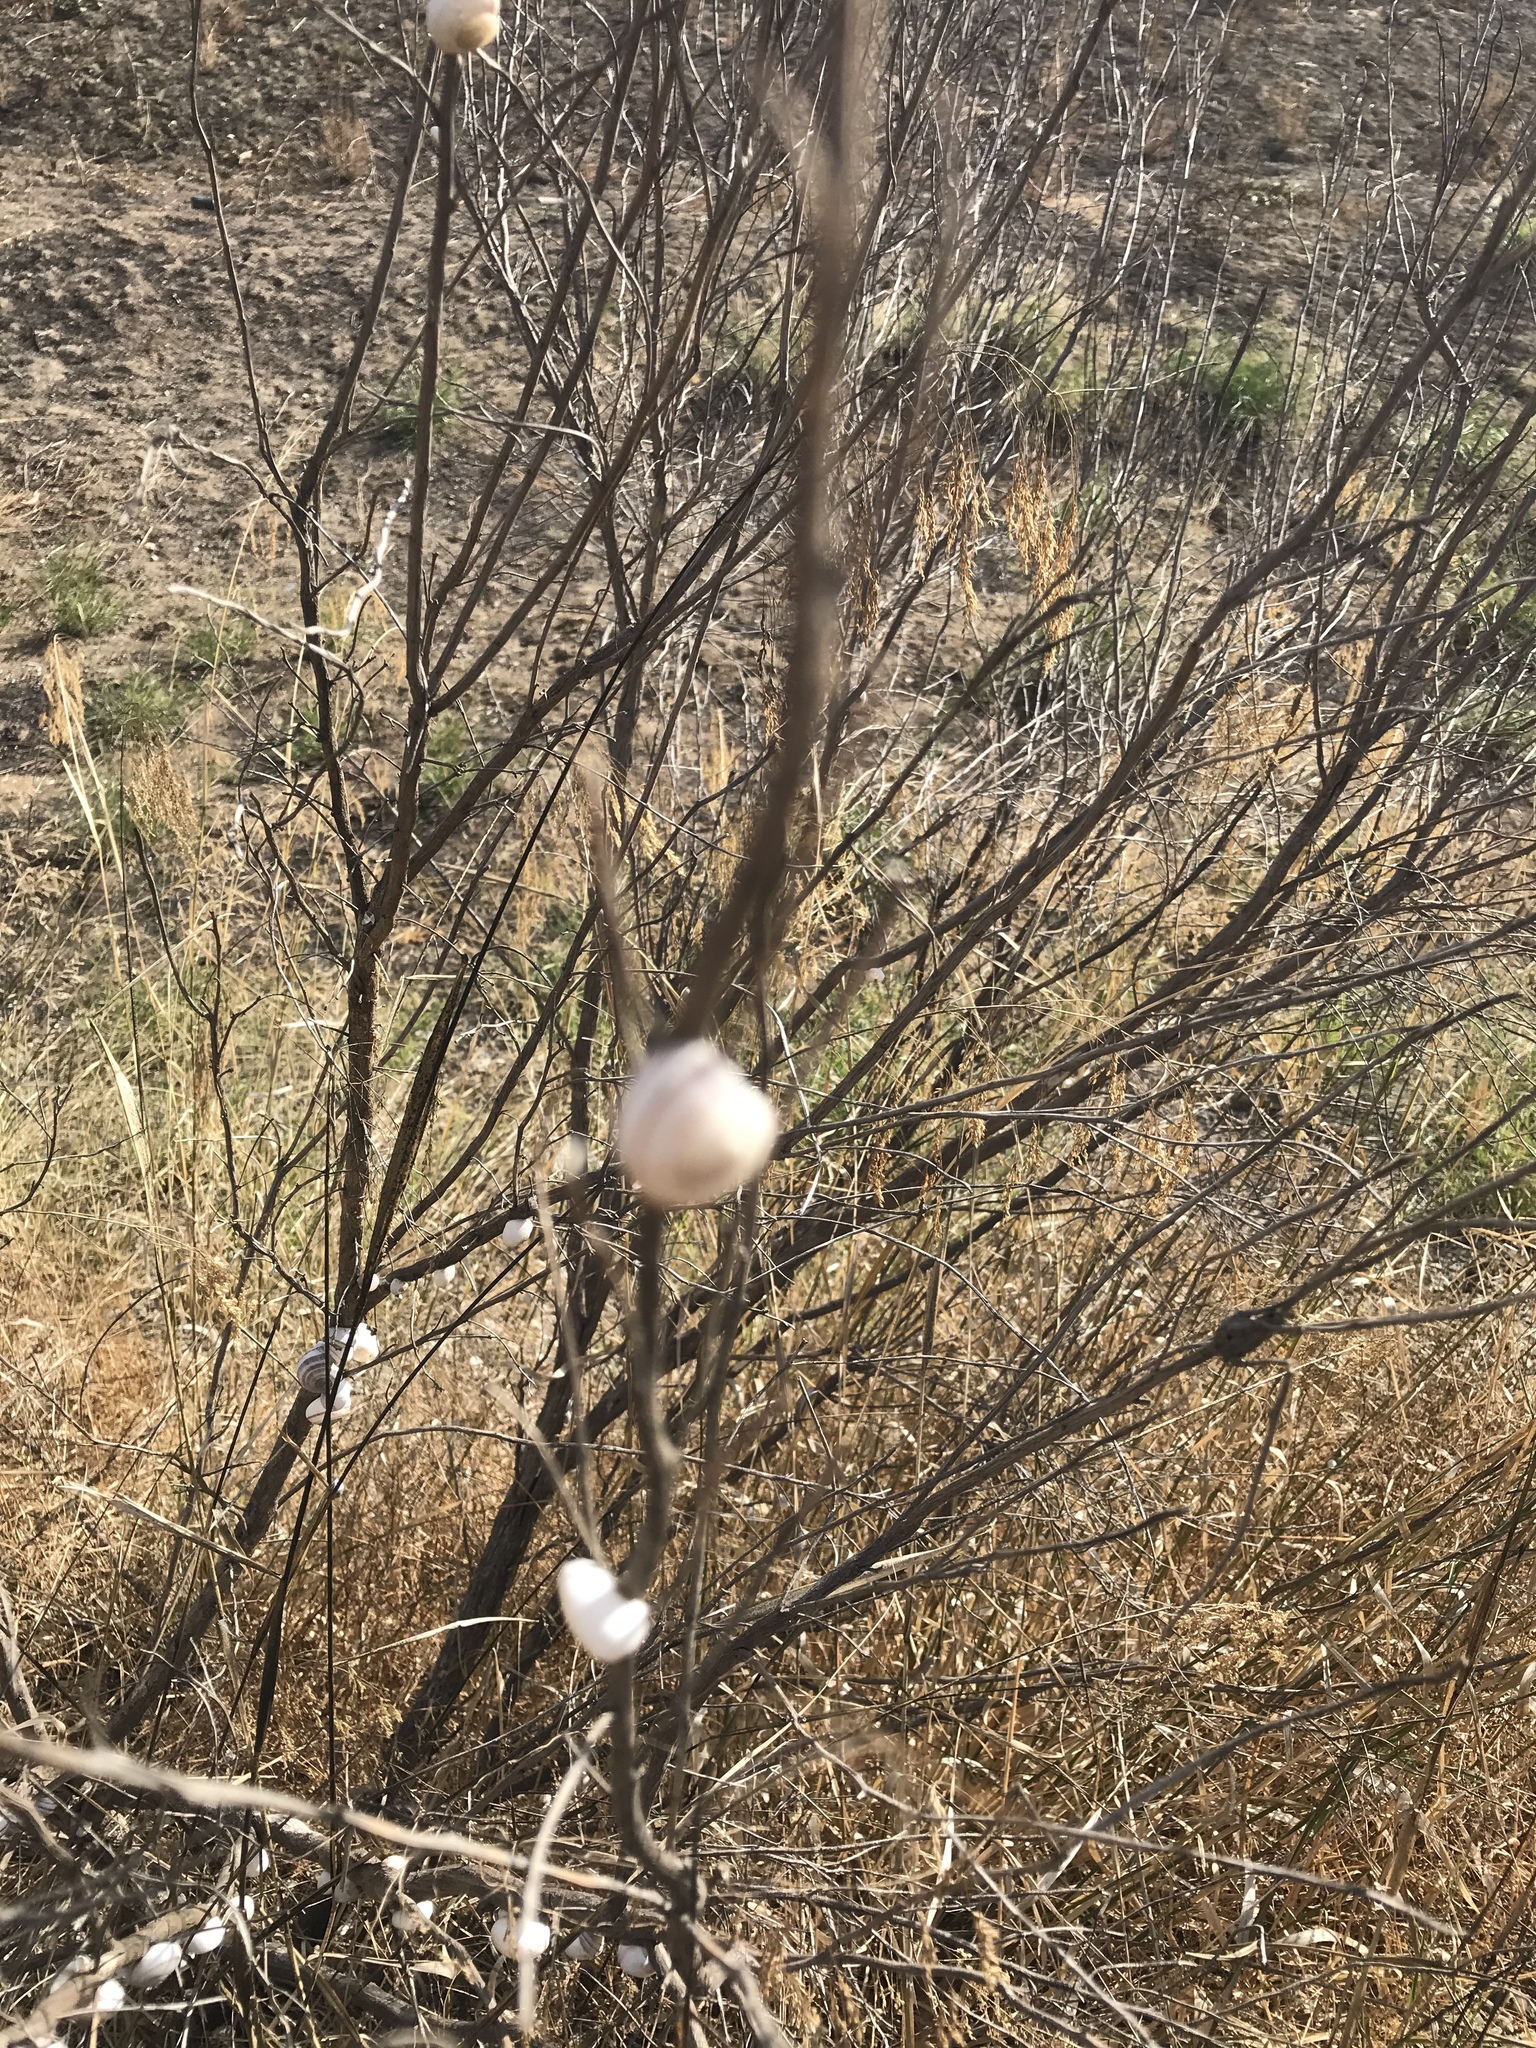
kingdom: Animalia
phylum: Mollusca
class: Gastropoda
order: Stylommatophora
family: Helicidae
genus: Otala
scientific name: Otala lactea
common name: Milk snail
